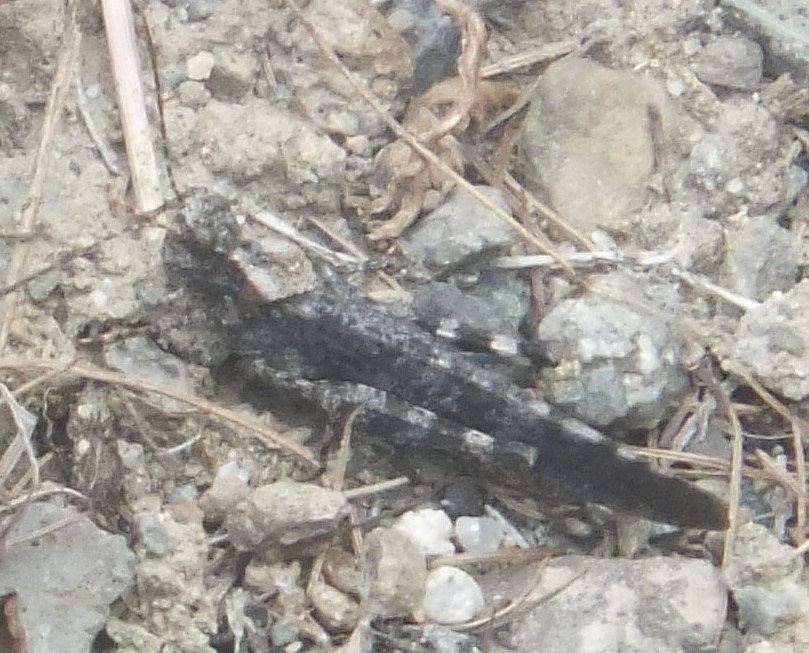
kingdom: Animalia
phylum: Arthropoda
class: Insecta
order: Orthoptera
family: Acrididae
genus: Trimerotropis
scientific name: Trimerotropis verruculata
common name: Crackling forest grasshopper
